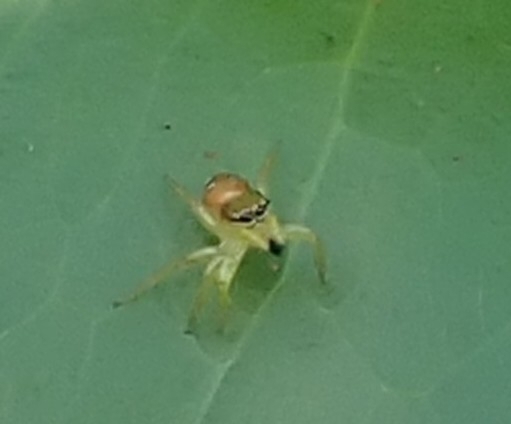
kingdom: Animalia
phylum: Arthropoda
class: Arachnida
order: Araneae
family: Salticidae
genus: Cytaea
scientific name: Cytaea dispalans
